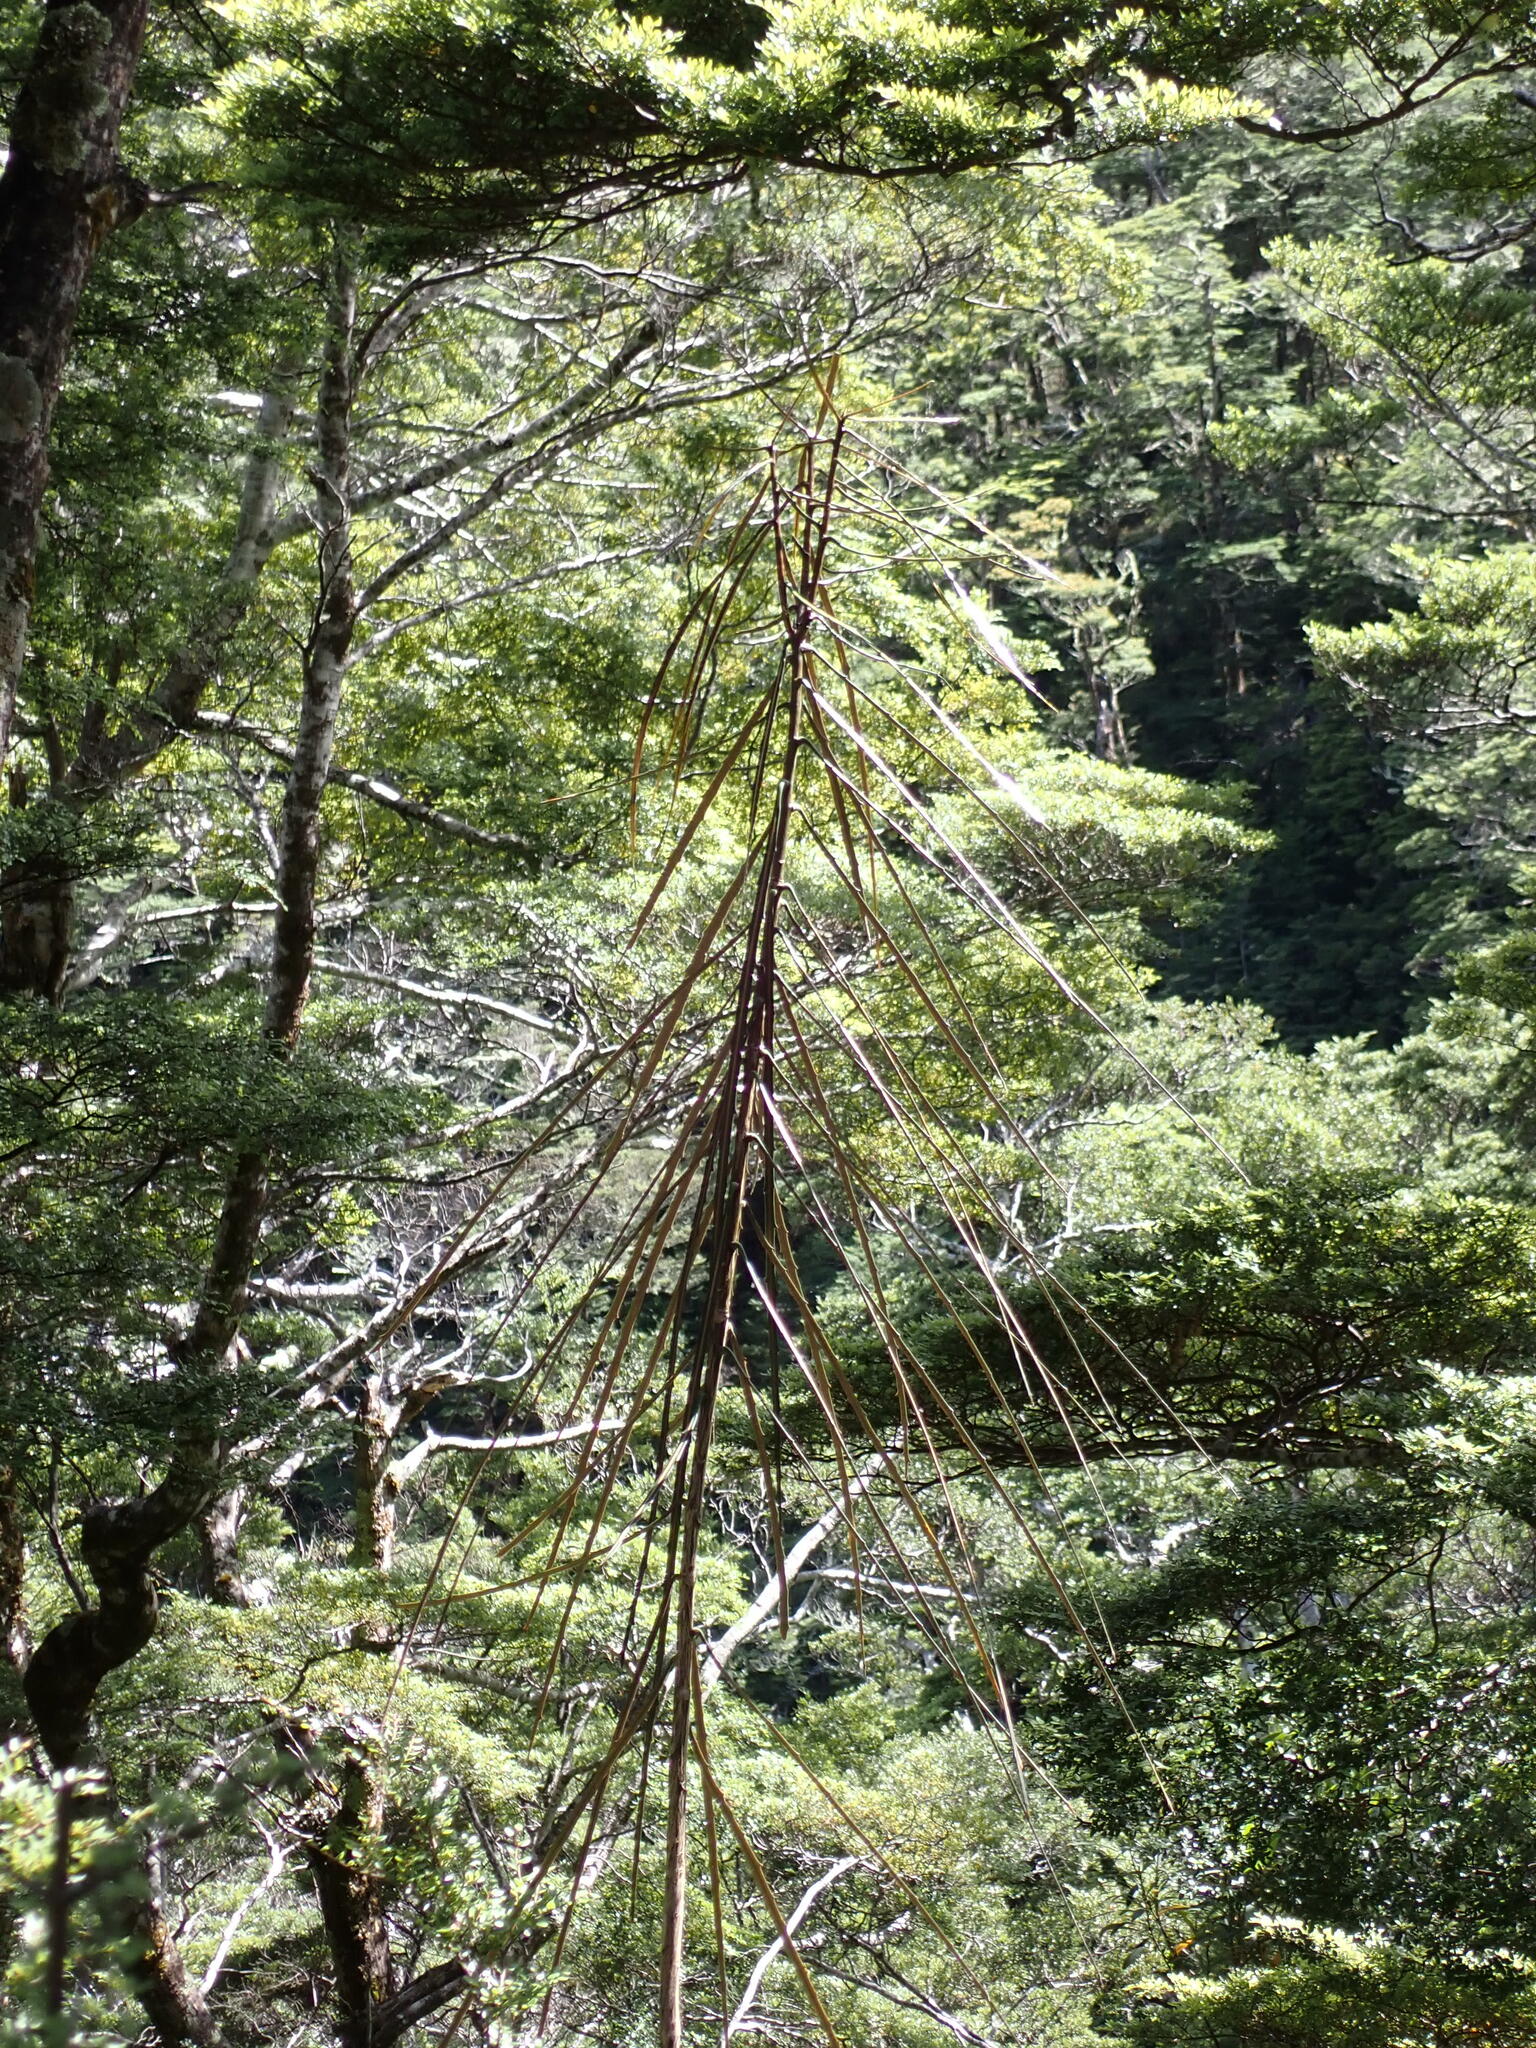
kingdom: Plantae
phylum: Tracheophyta
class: Magnoliopsida
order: Apiales
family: Araliaceae
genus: Pseudopanax
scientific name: Pseudopanax crassifolius
